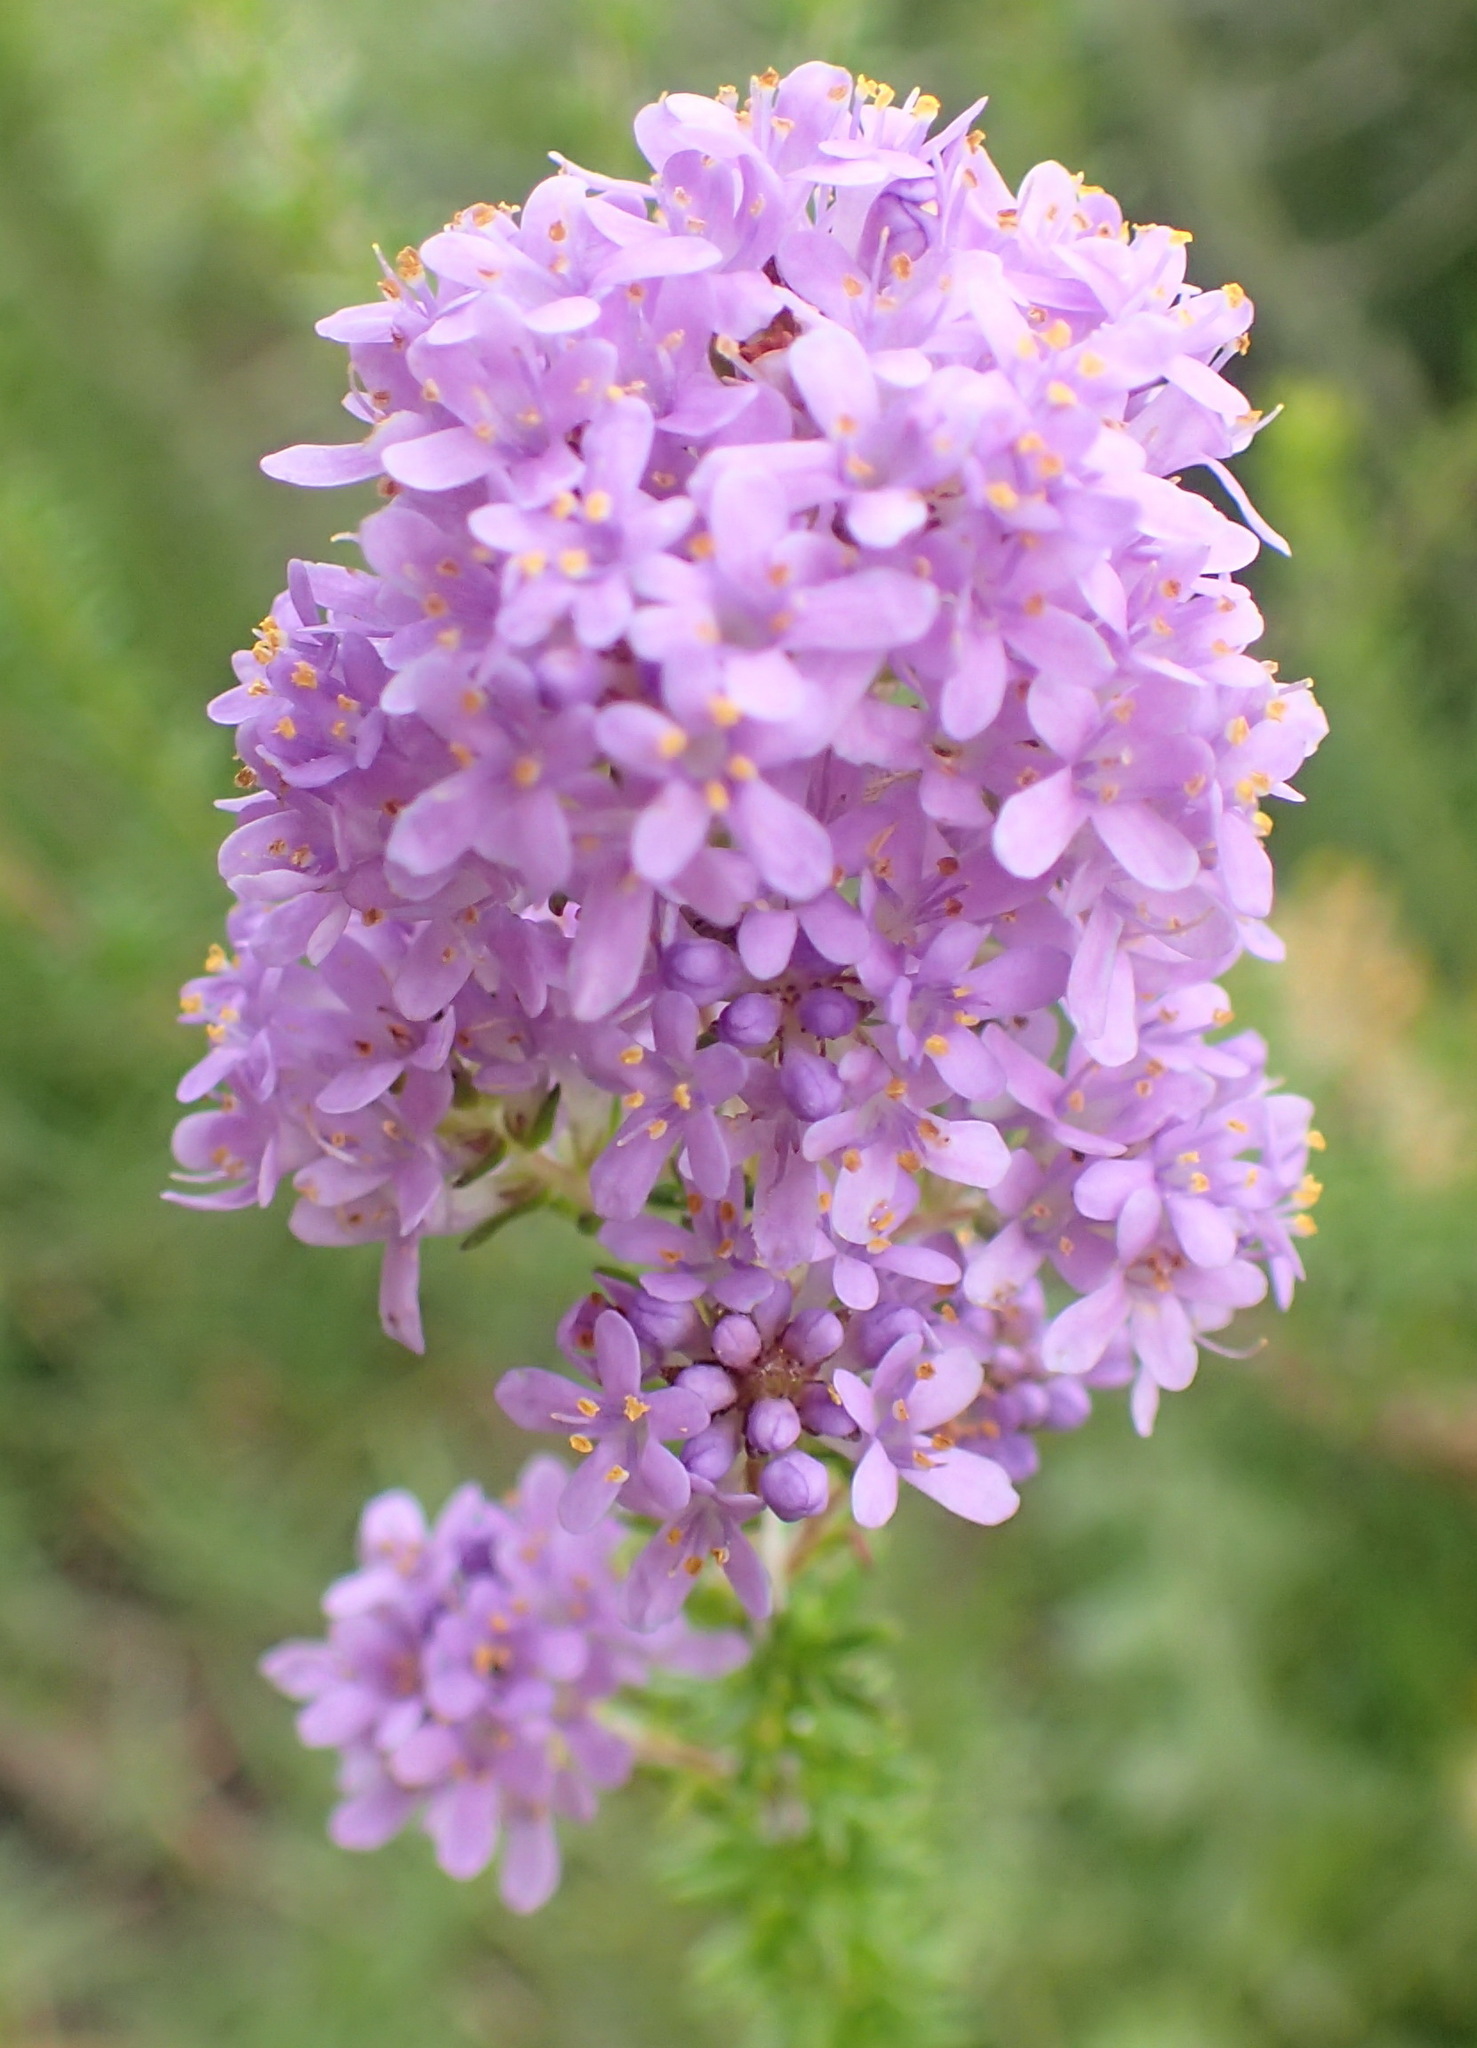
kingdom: Plantae
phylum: Tracheophyta
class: Magnoliopsida
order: Lamiales
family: Scrophulariaceae
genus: Selago
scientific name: Selago villicaulis
